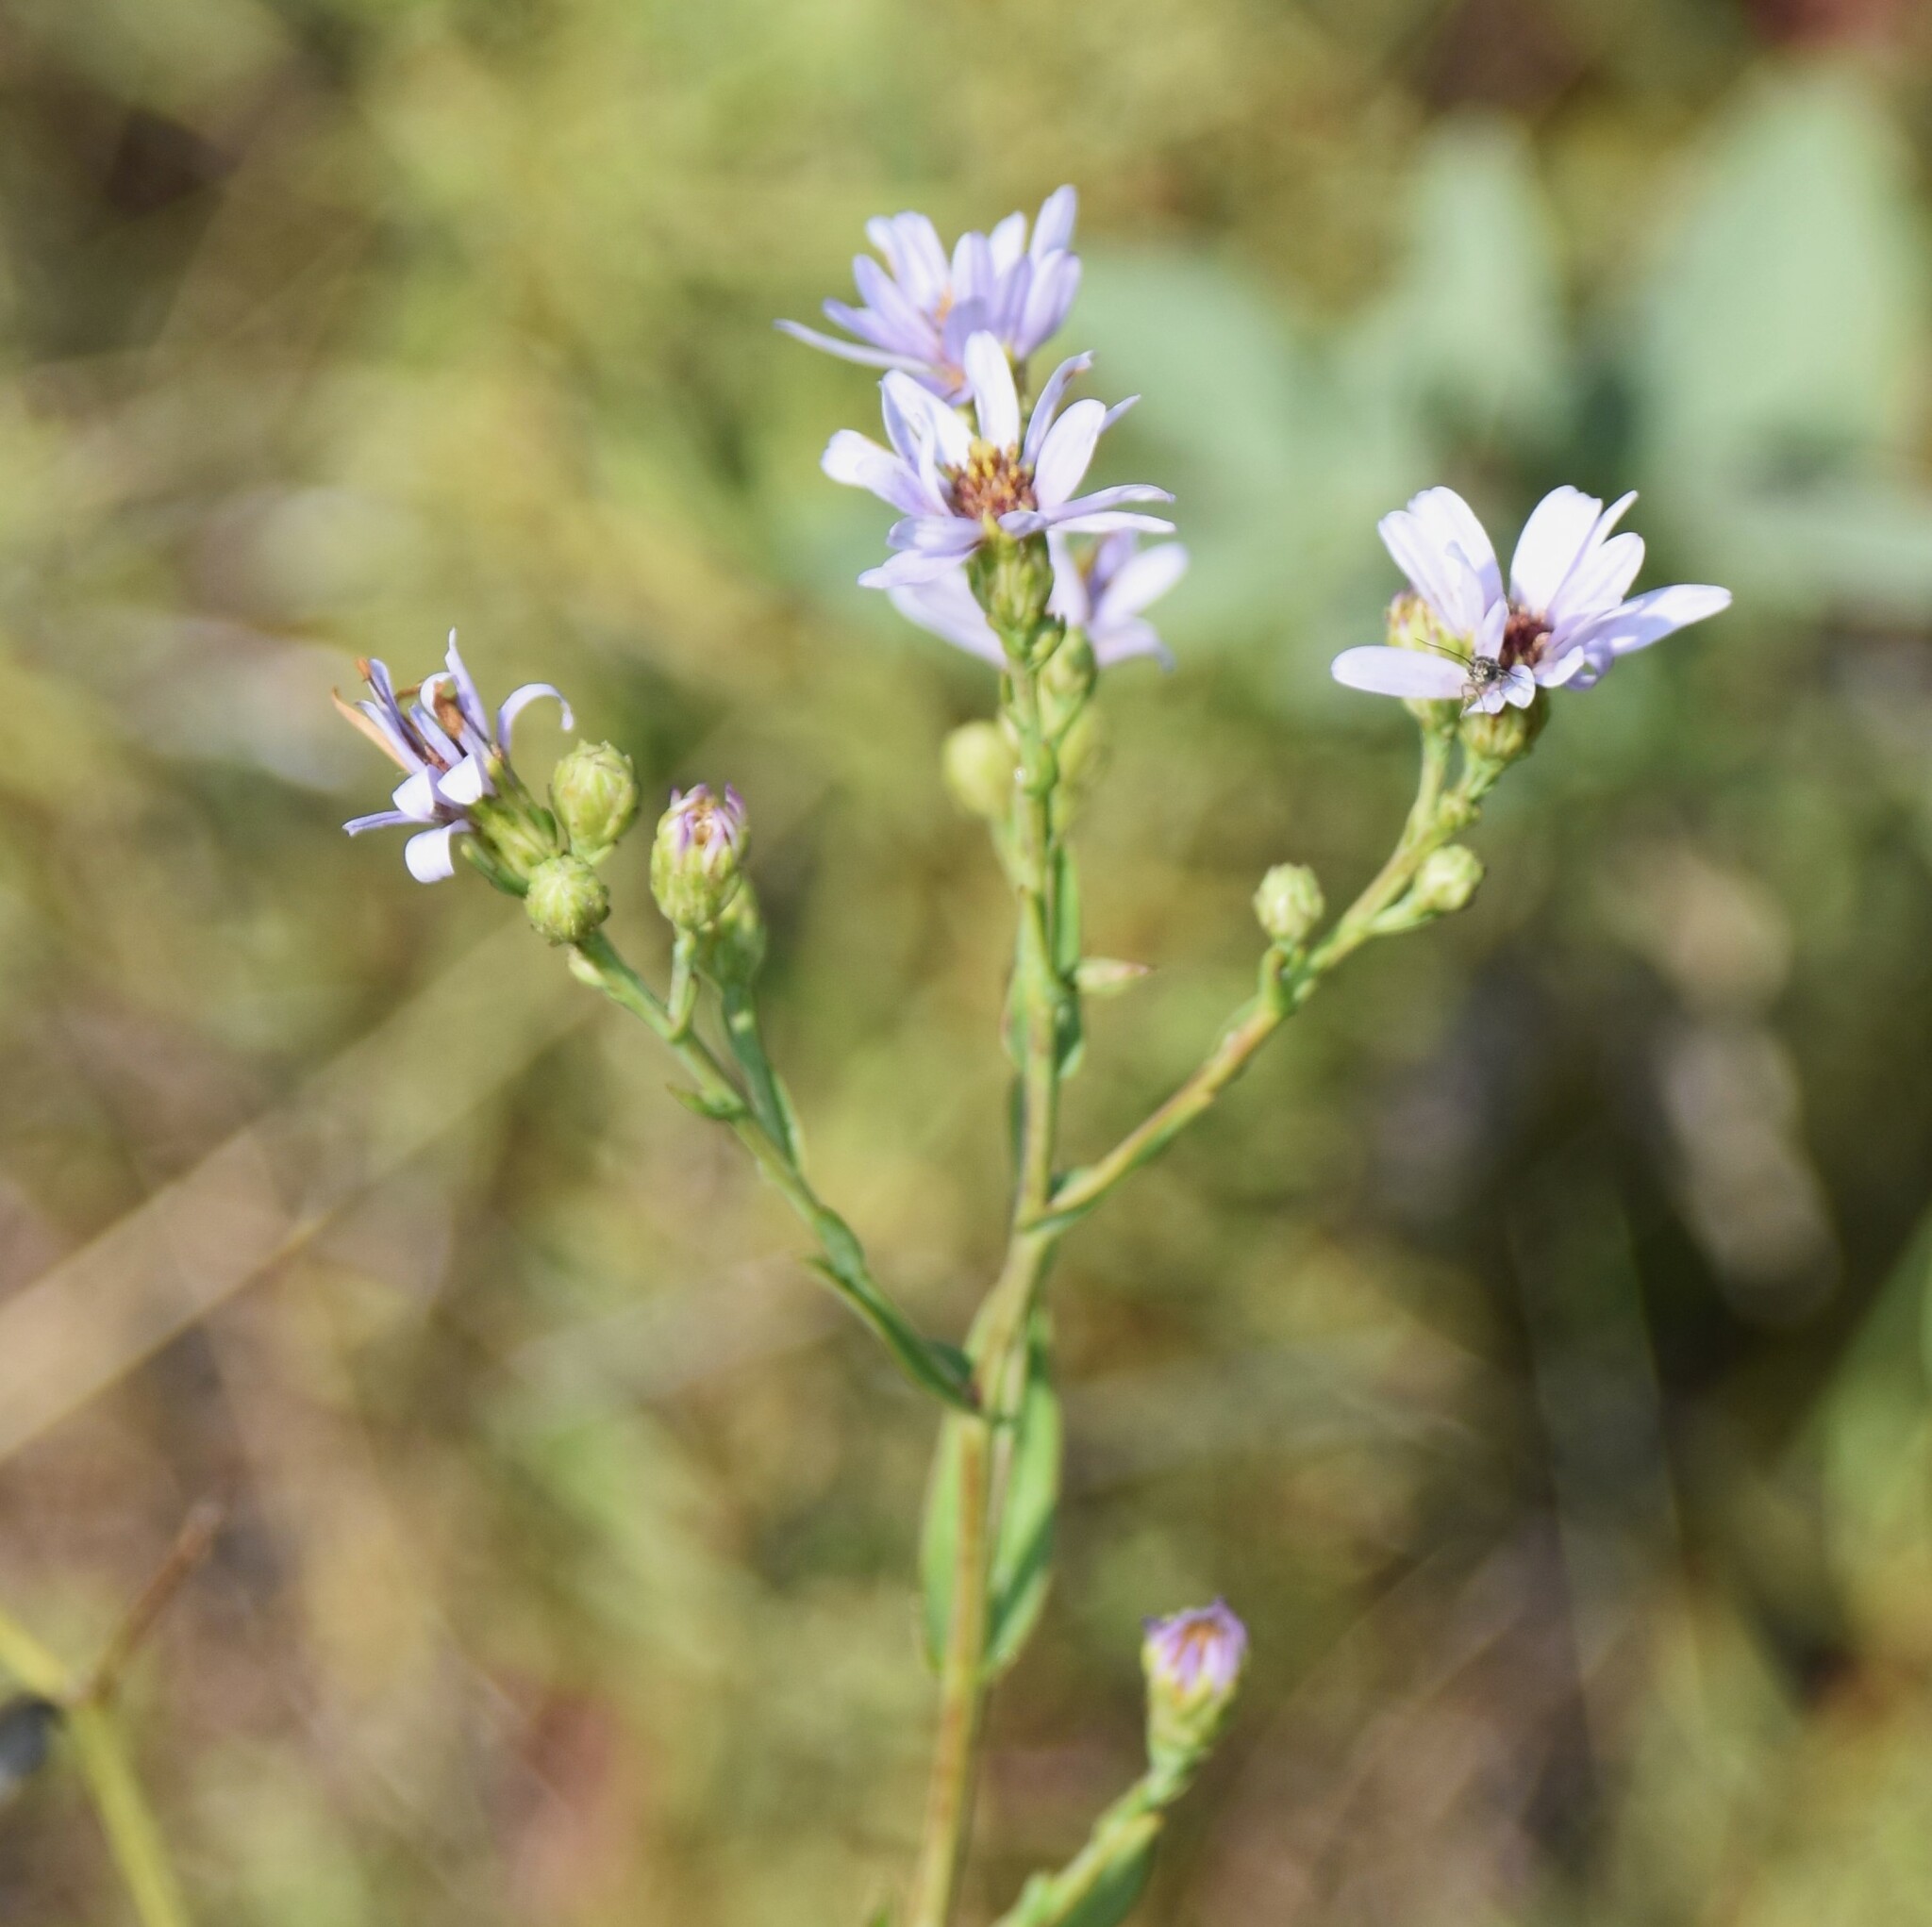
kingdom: Plantae
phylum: Tracheophyta
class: Magnoliopsida
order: Asterales
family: Asteraceae
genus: Symphyotrichum
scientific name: Symphyotrichum laeve
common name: Glaucous aster
